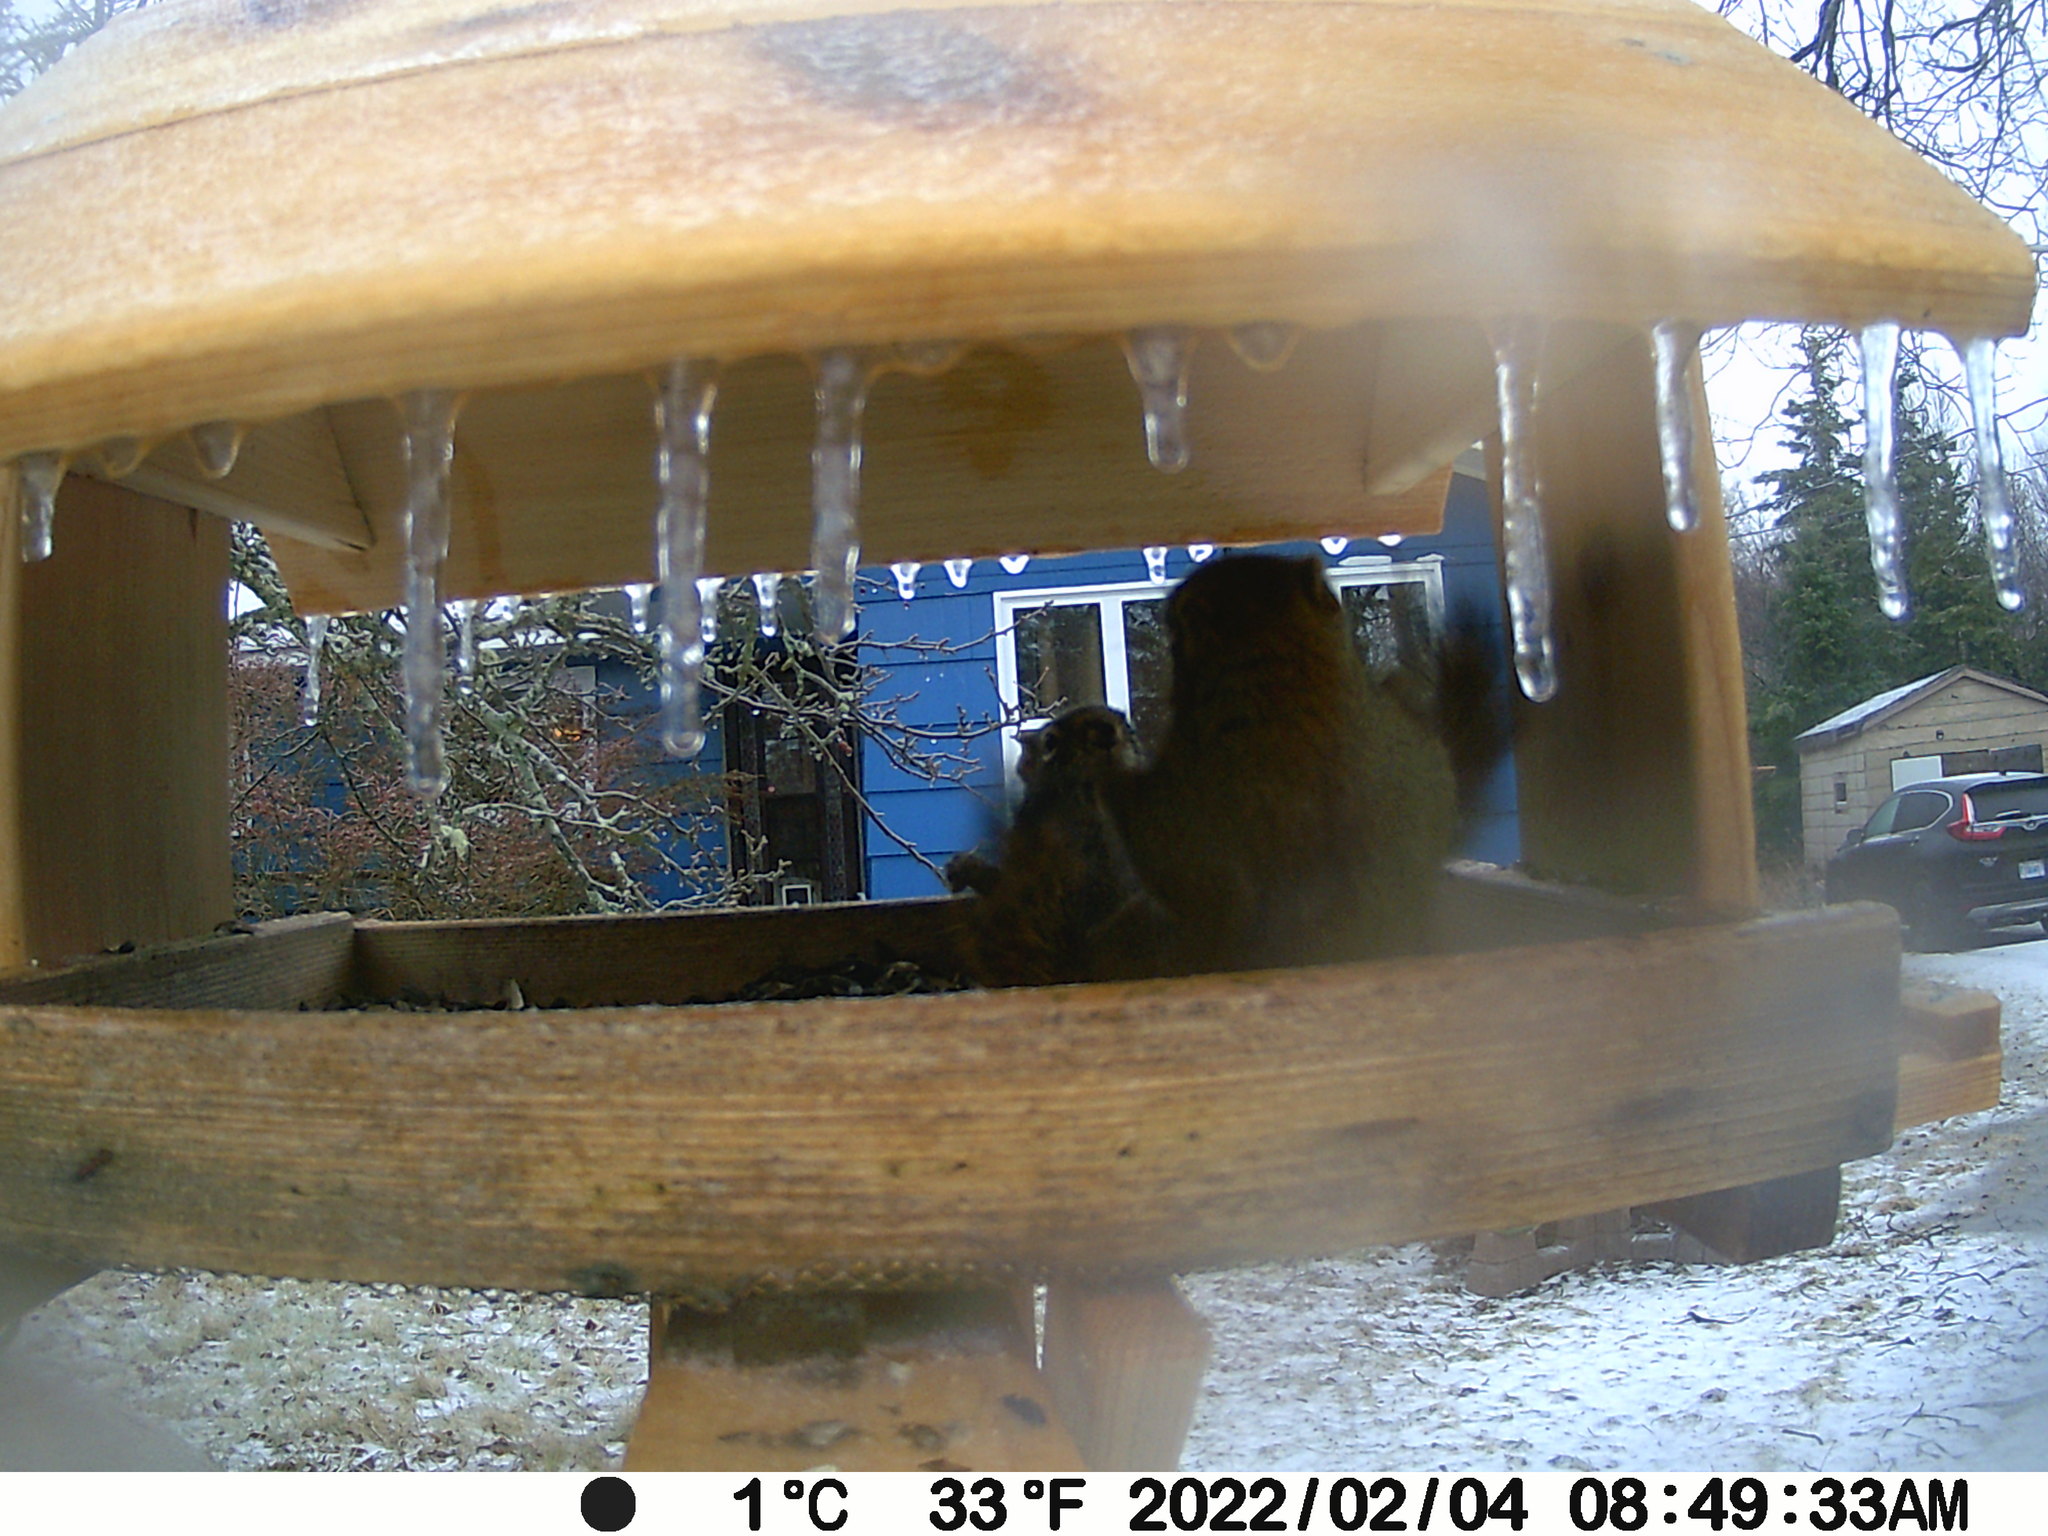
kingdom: Animalia
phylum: Chordata
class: Mammalia
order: Rodentia
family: Sciuridae
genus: Tamiasciurus
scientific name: Tamiasciurus hudsonicus
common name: Red squirrel
